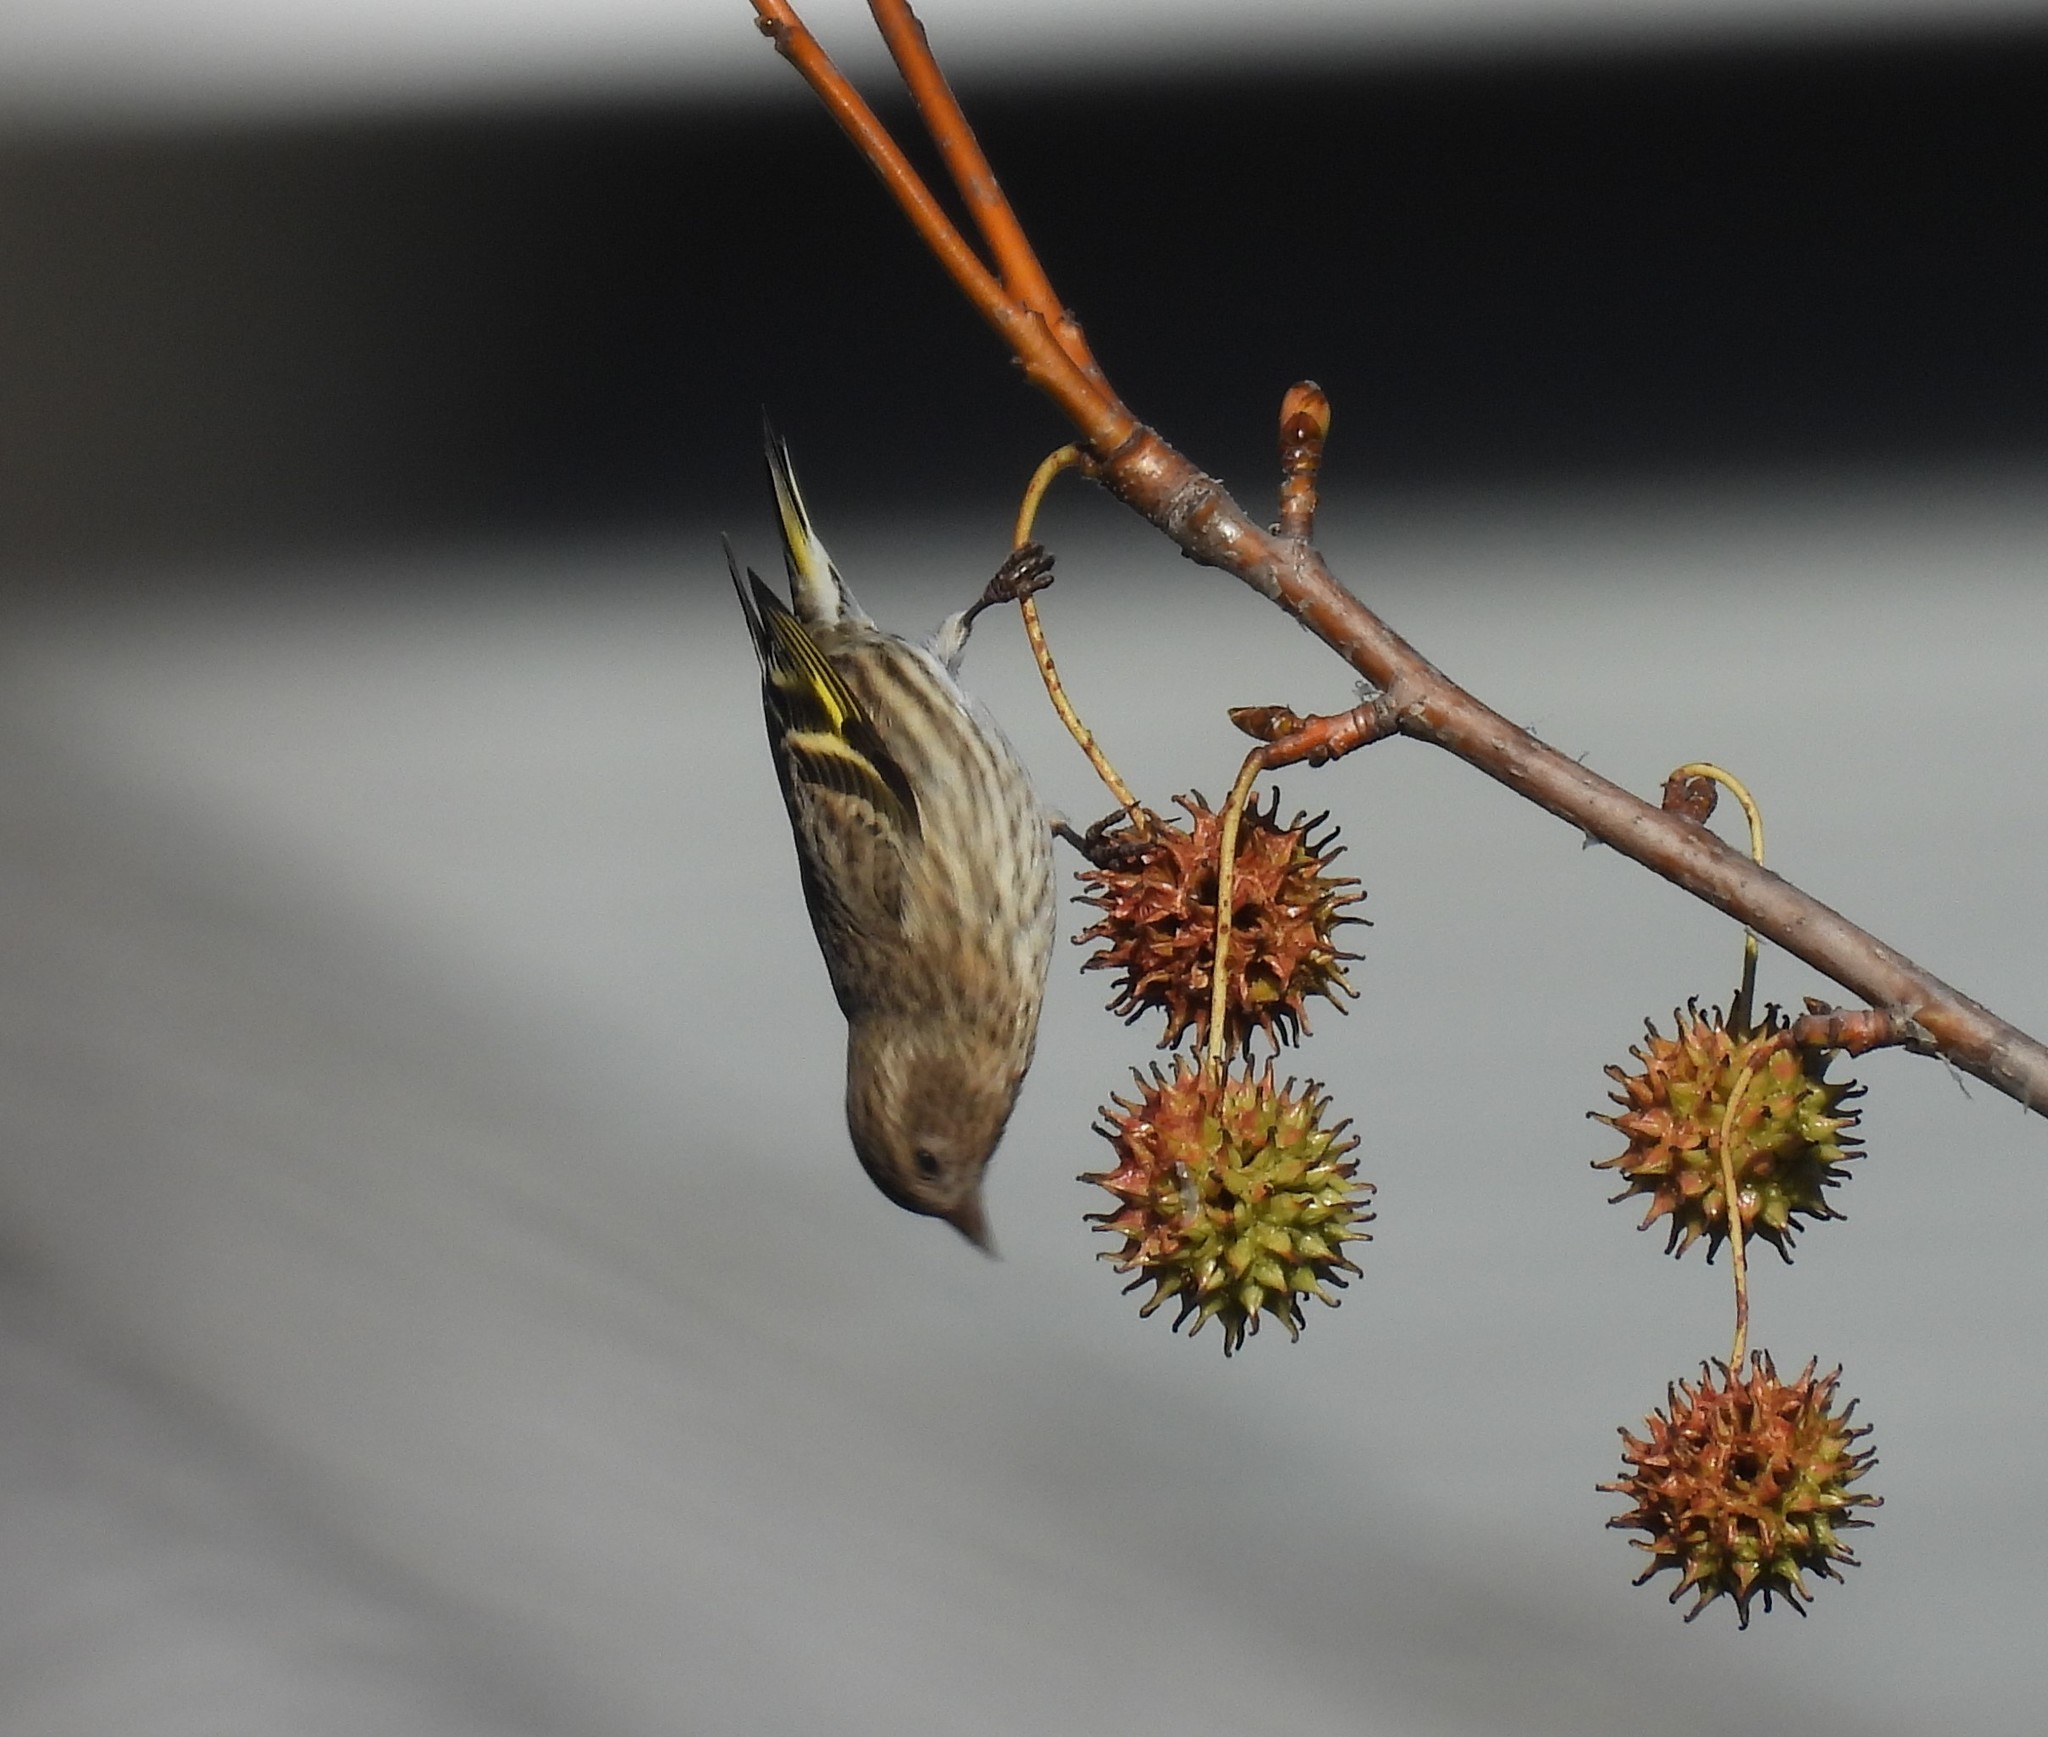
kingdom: Animalia
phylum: Chordata
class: Aves
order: Passeriformes
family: Fringillidae
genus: Spinus
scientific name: Spinus pinus
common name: Pine siskin
